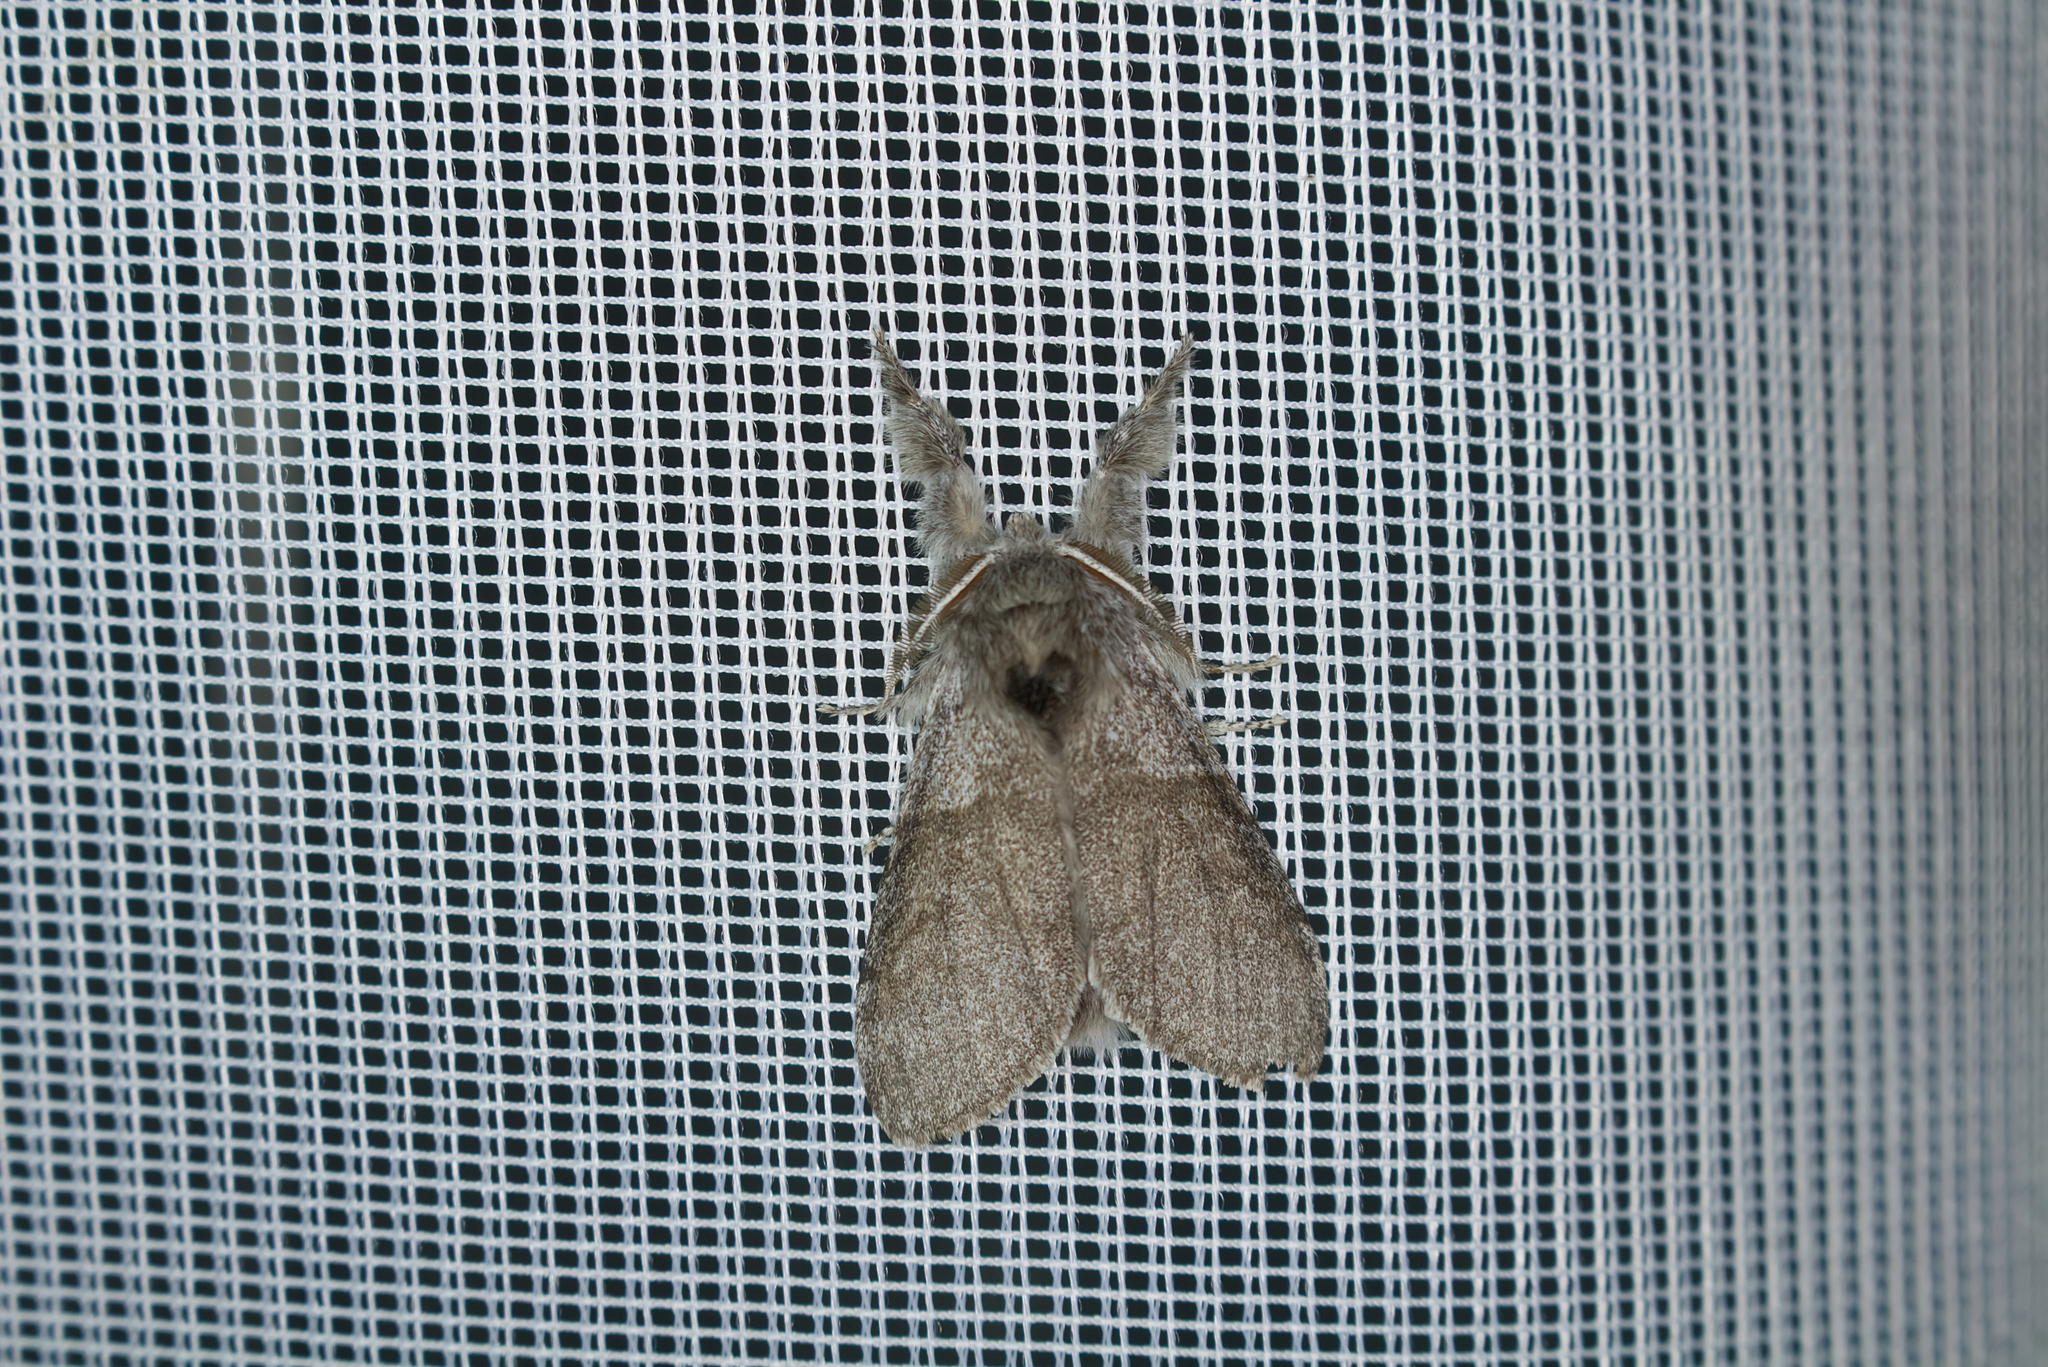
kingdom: Animalia
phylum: Arthropoda
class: Insecta
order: Lepidoptera
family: Erebidae
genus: Calliteara
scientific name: Calliteara pudibunda
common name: Pale tussock
